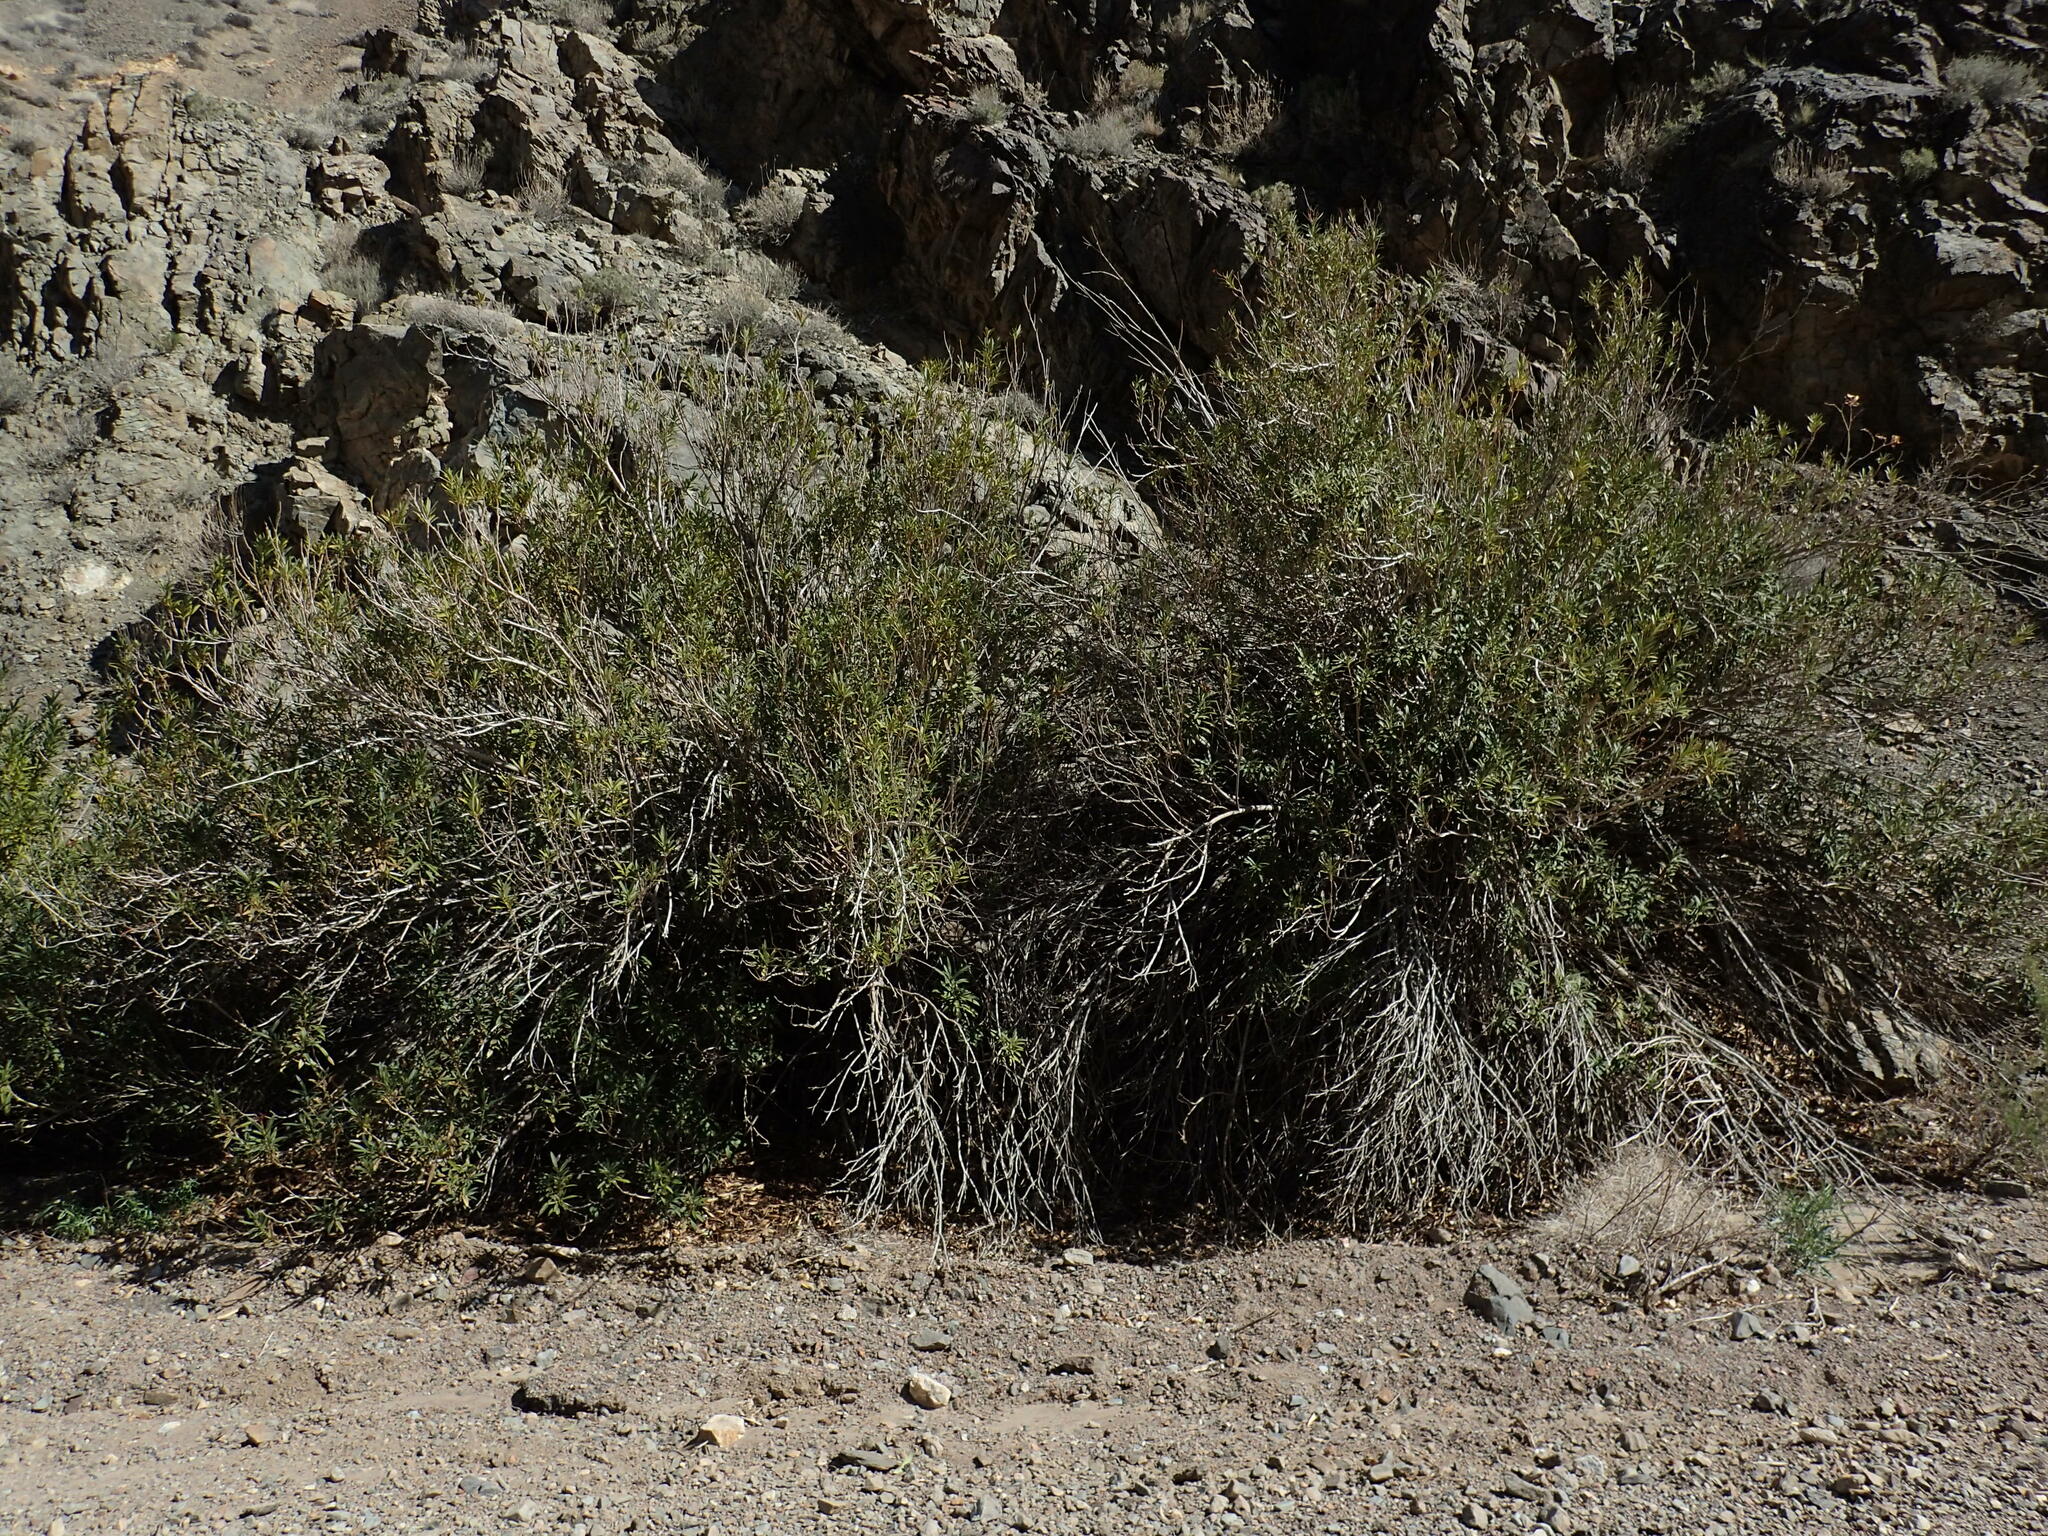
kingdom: Plantae
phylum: Tracheophyta
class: Magnoliopsida
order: Gentianales
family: Apocynaceae
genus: Nerium
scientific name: Nerium oleander
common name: Oleander
